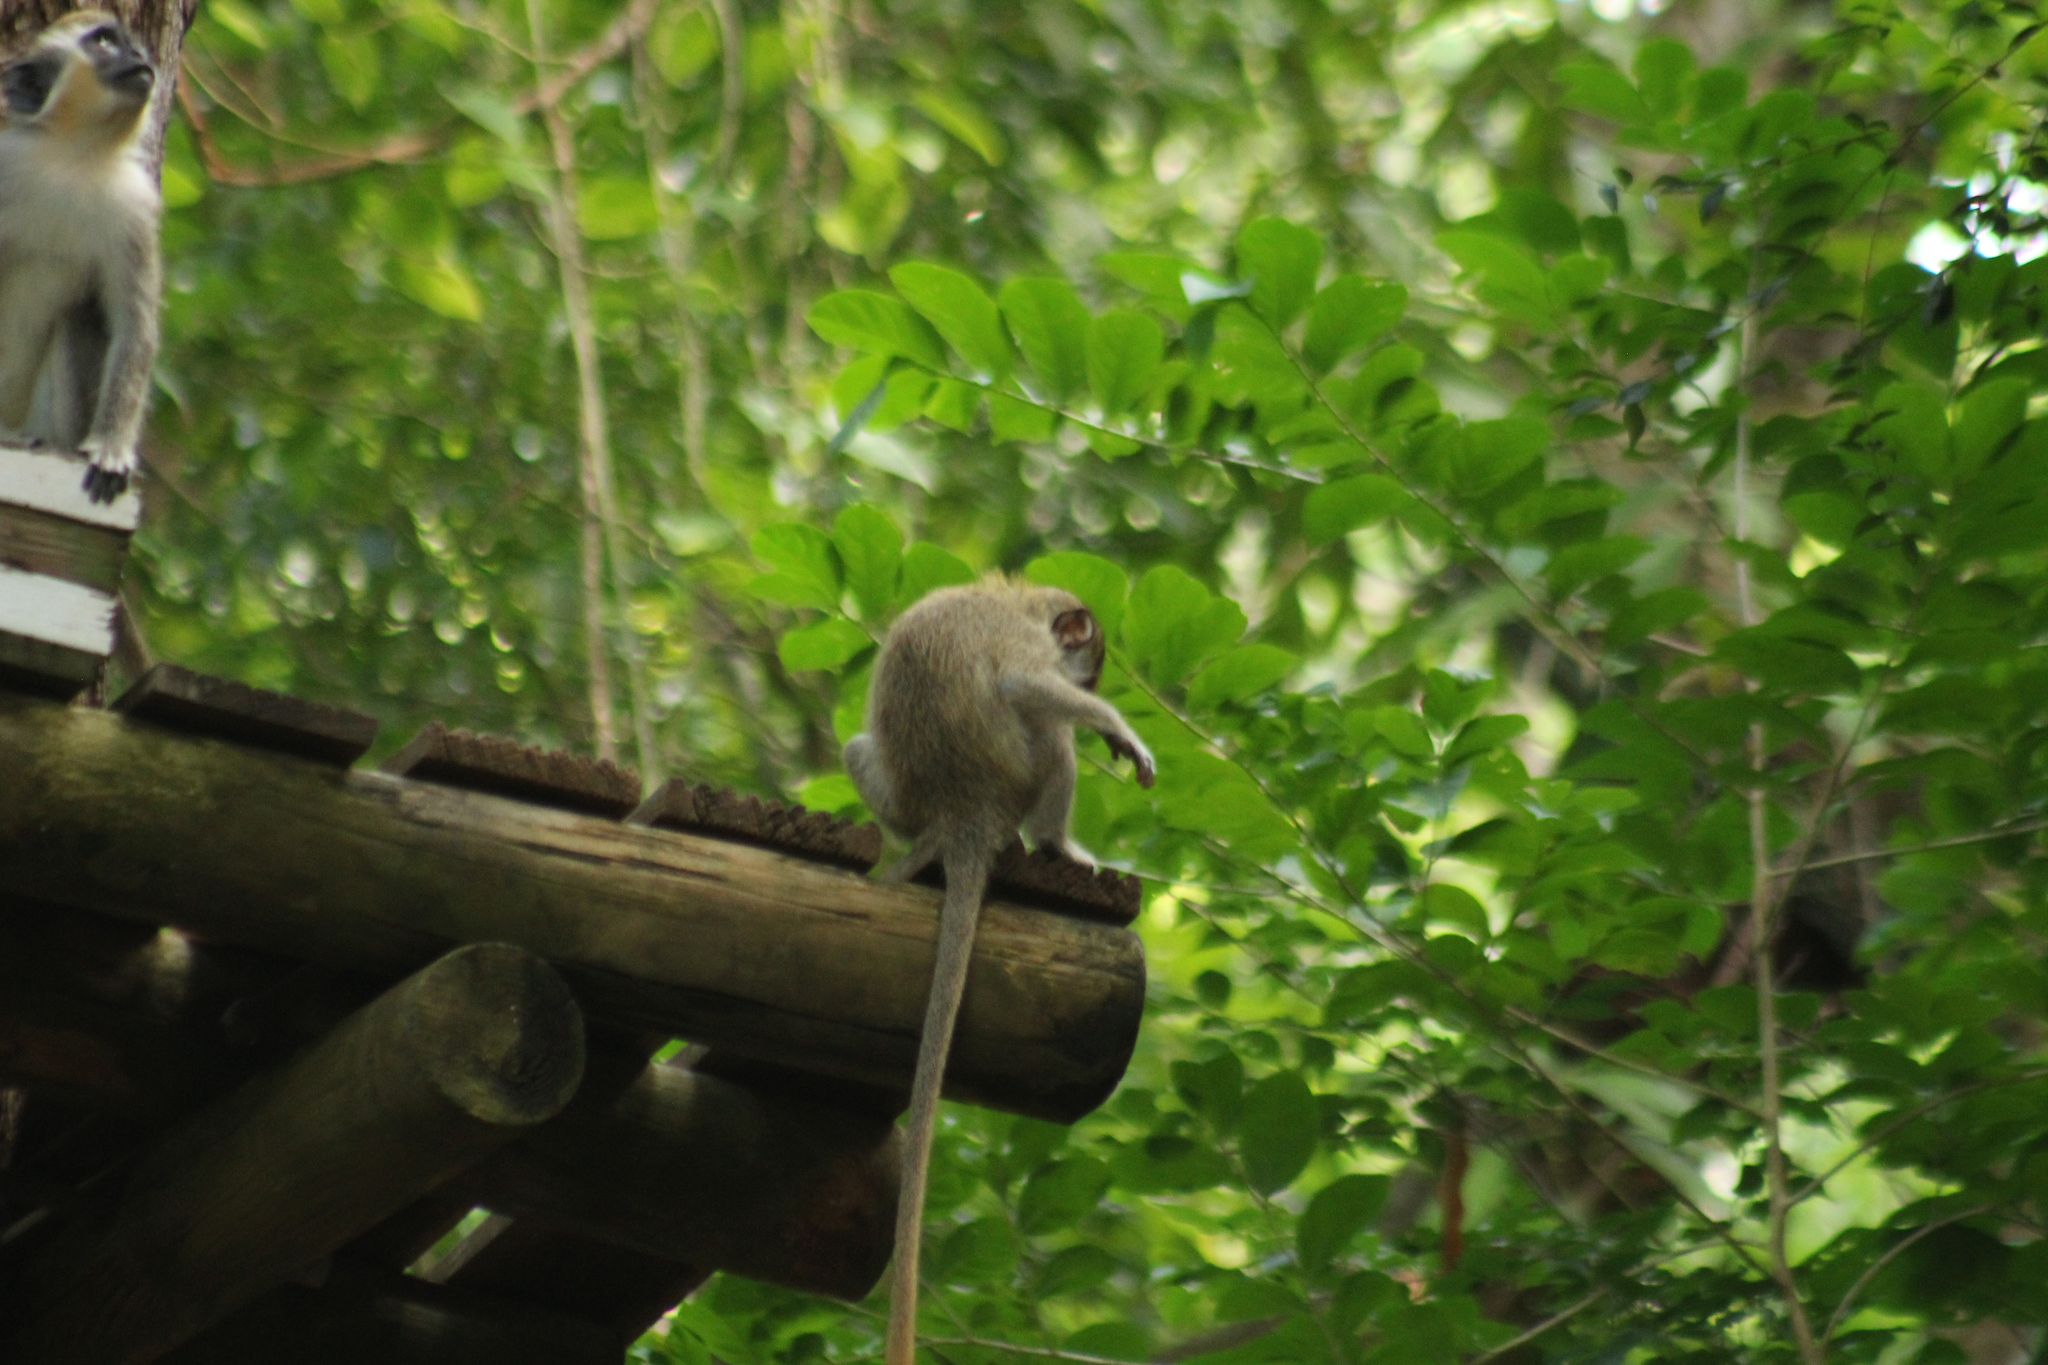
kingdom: Animalia
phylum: Chordata
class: Mammalia
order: Primates
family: Cercopithecidae
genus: Chlorocebus
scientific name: Chlorocebus sabaeus
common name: Green monkey
